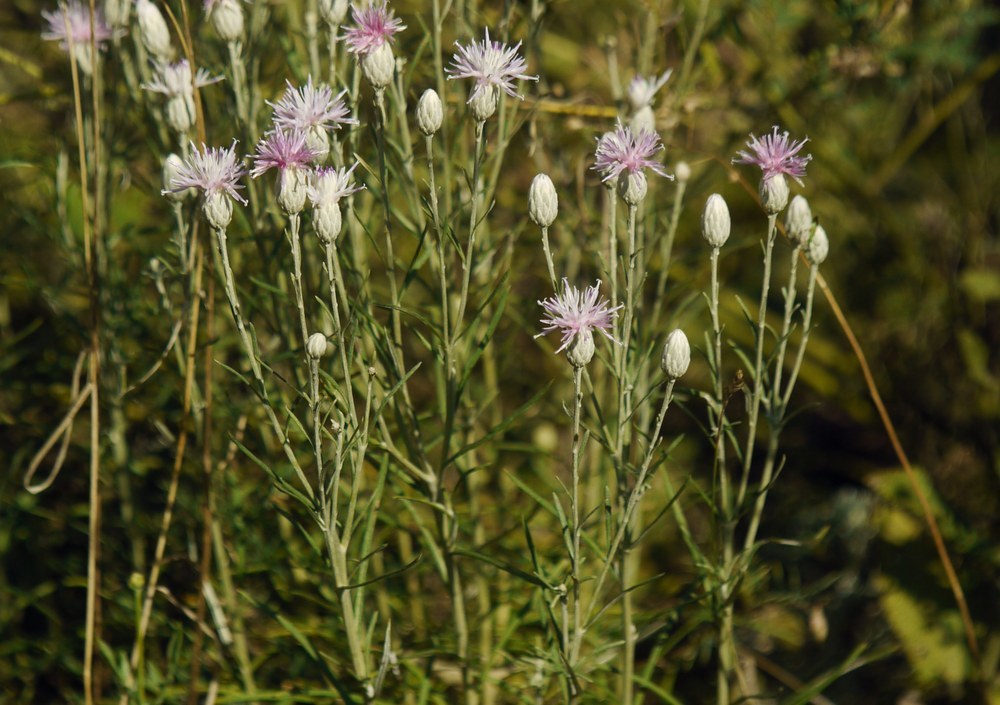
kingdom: Plantae
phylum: Tracheophyta
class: Magnoliopsida
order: Asterales
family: Asteraceae
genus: Jurinea
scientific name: Jurinea stoechadifolia
